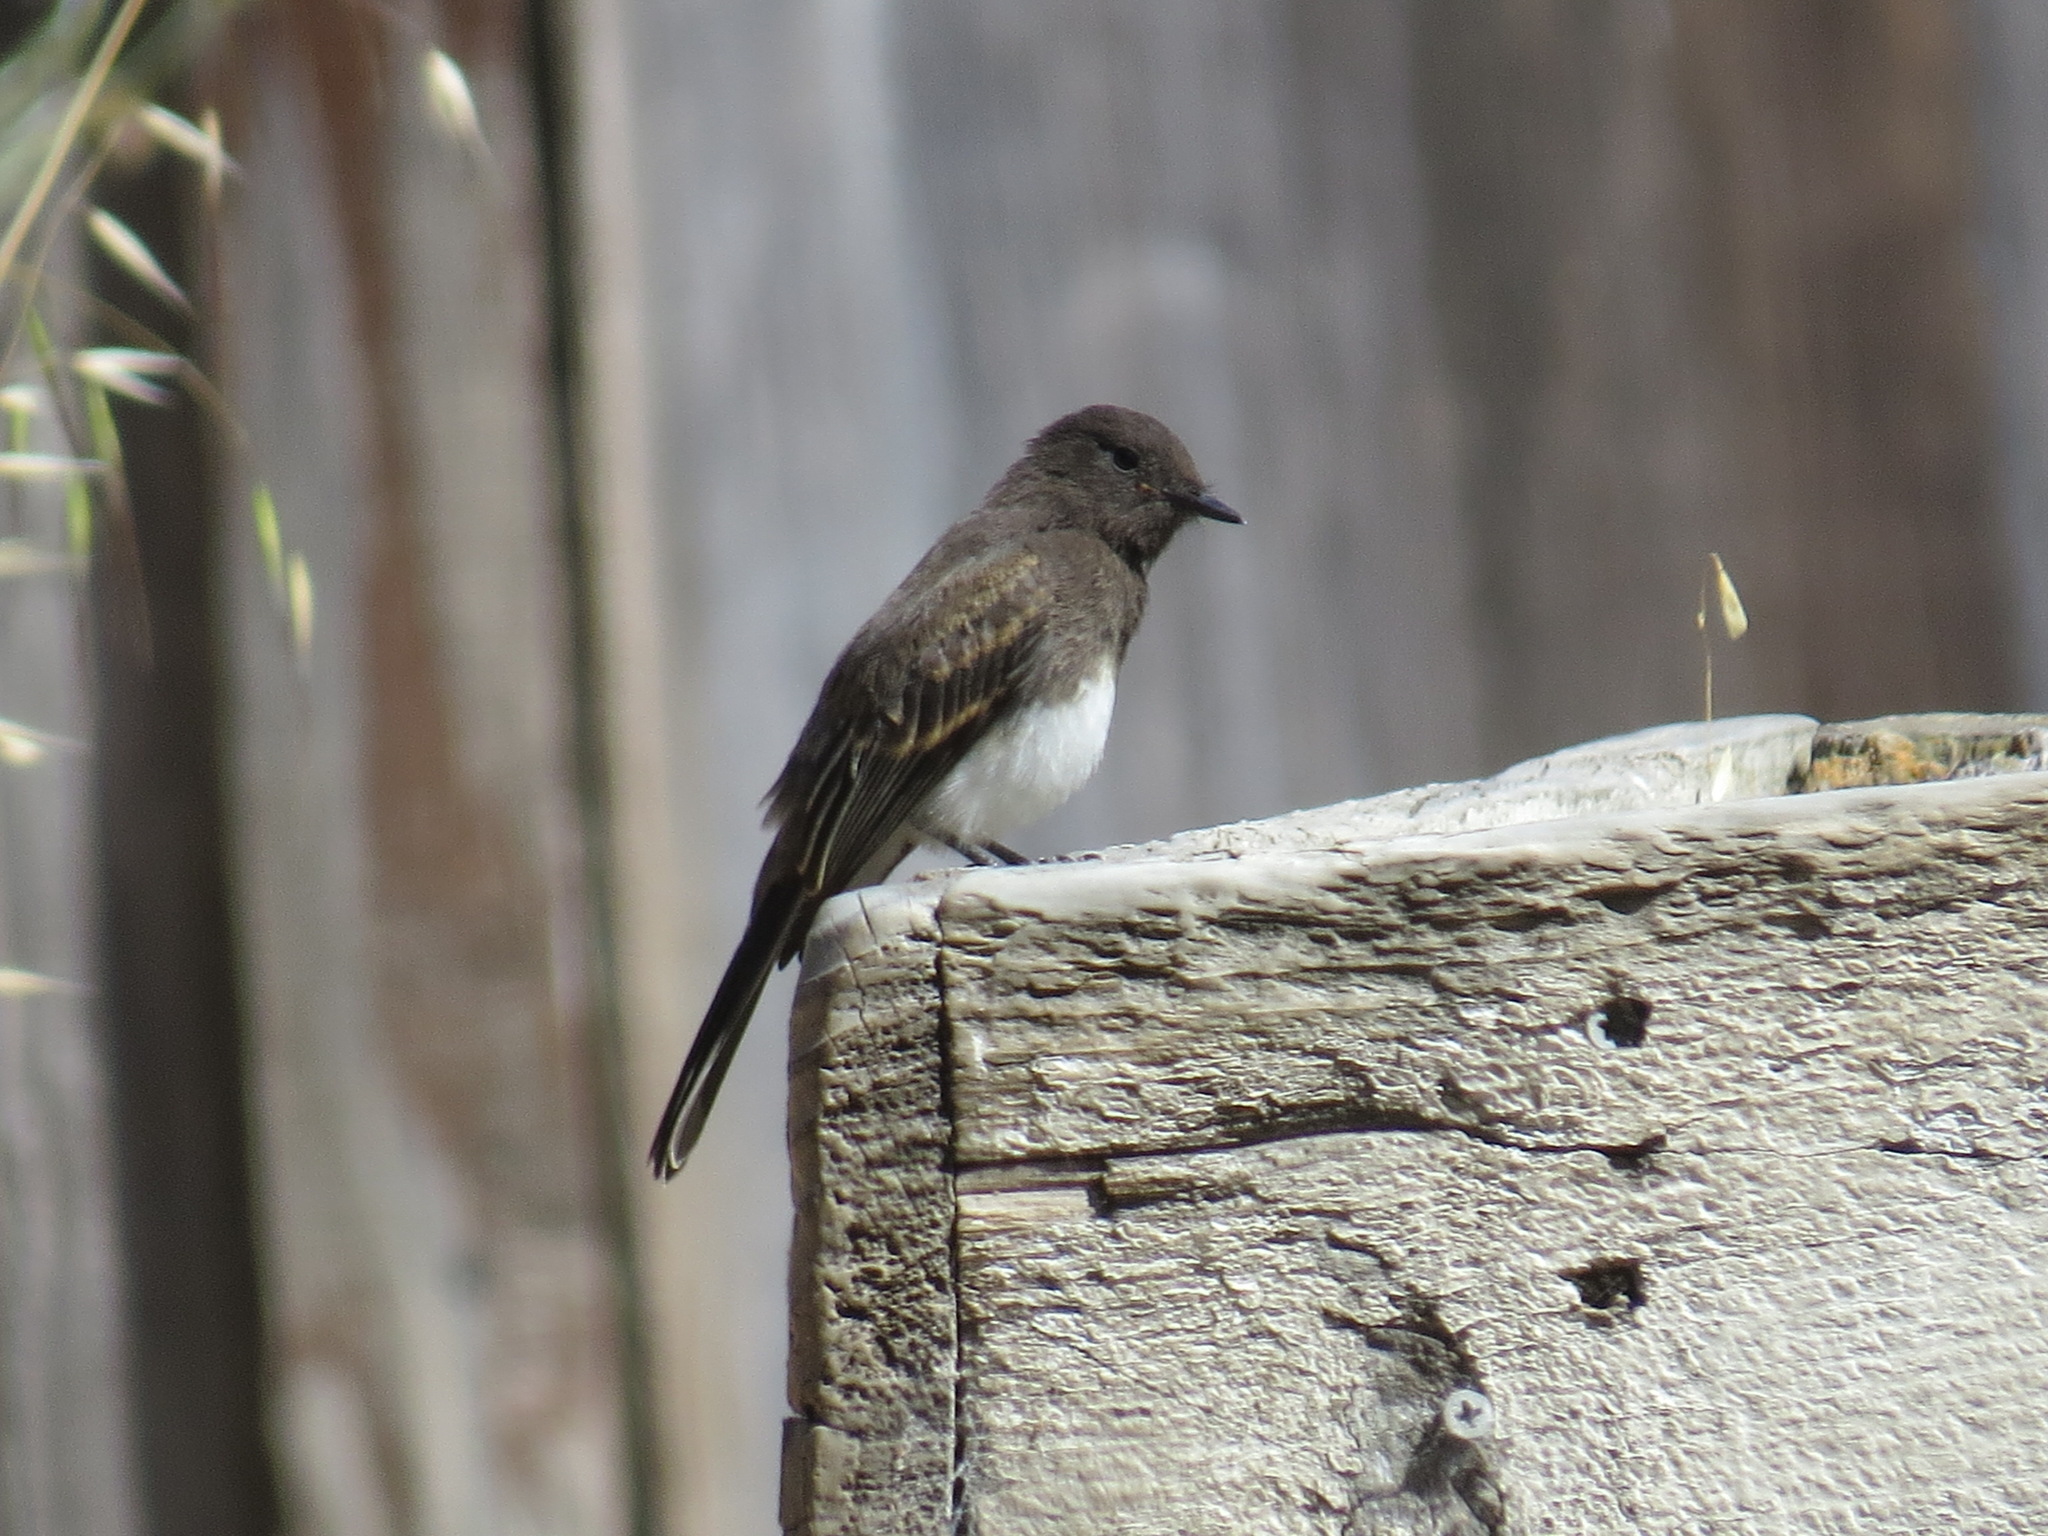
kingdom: Animalia
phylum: Chordata
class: Aves
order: Passeriformes
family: Tyrannidae
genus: Sayornis
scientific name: Sayornis nigricans
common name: Black phoebe
